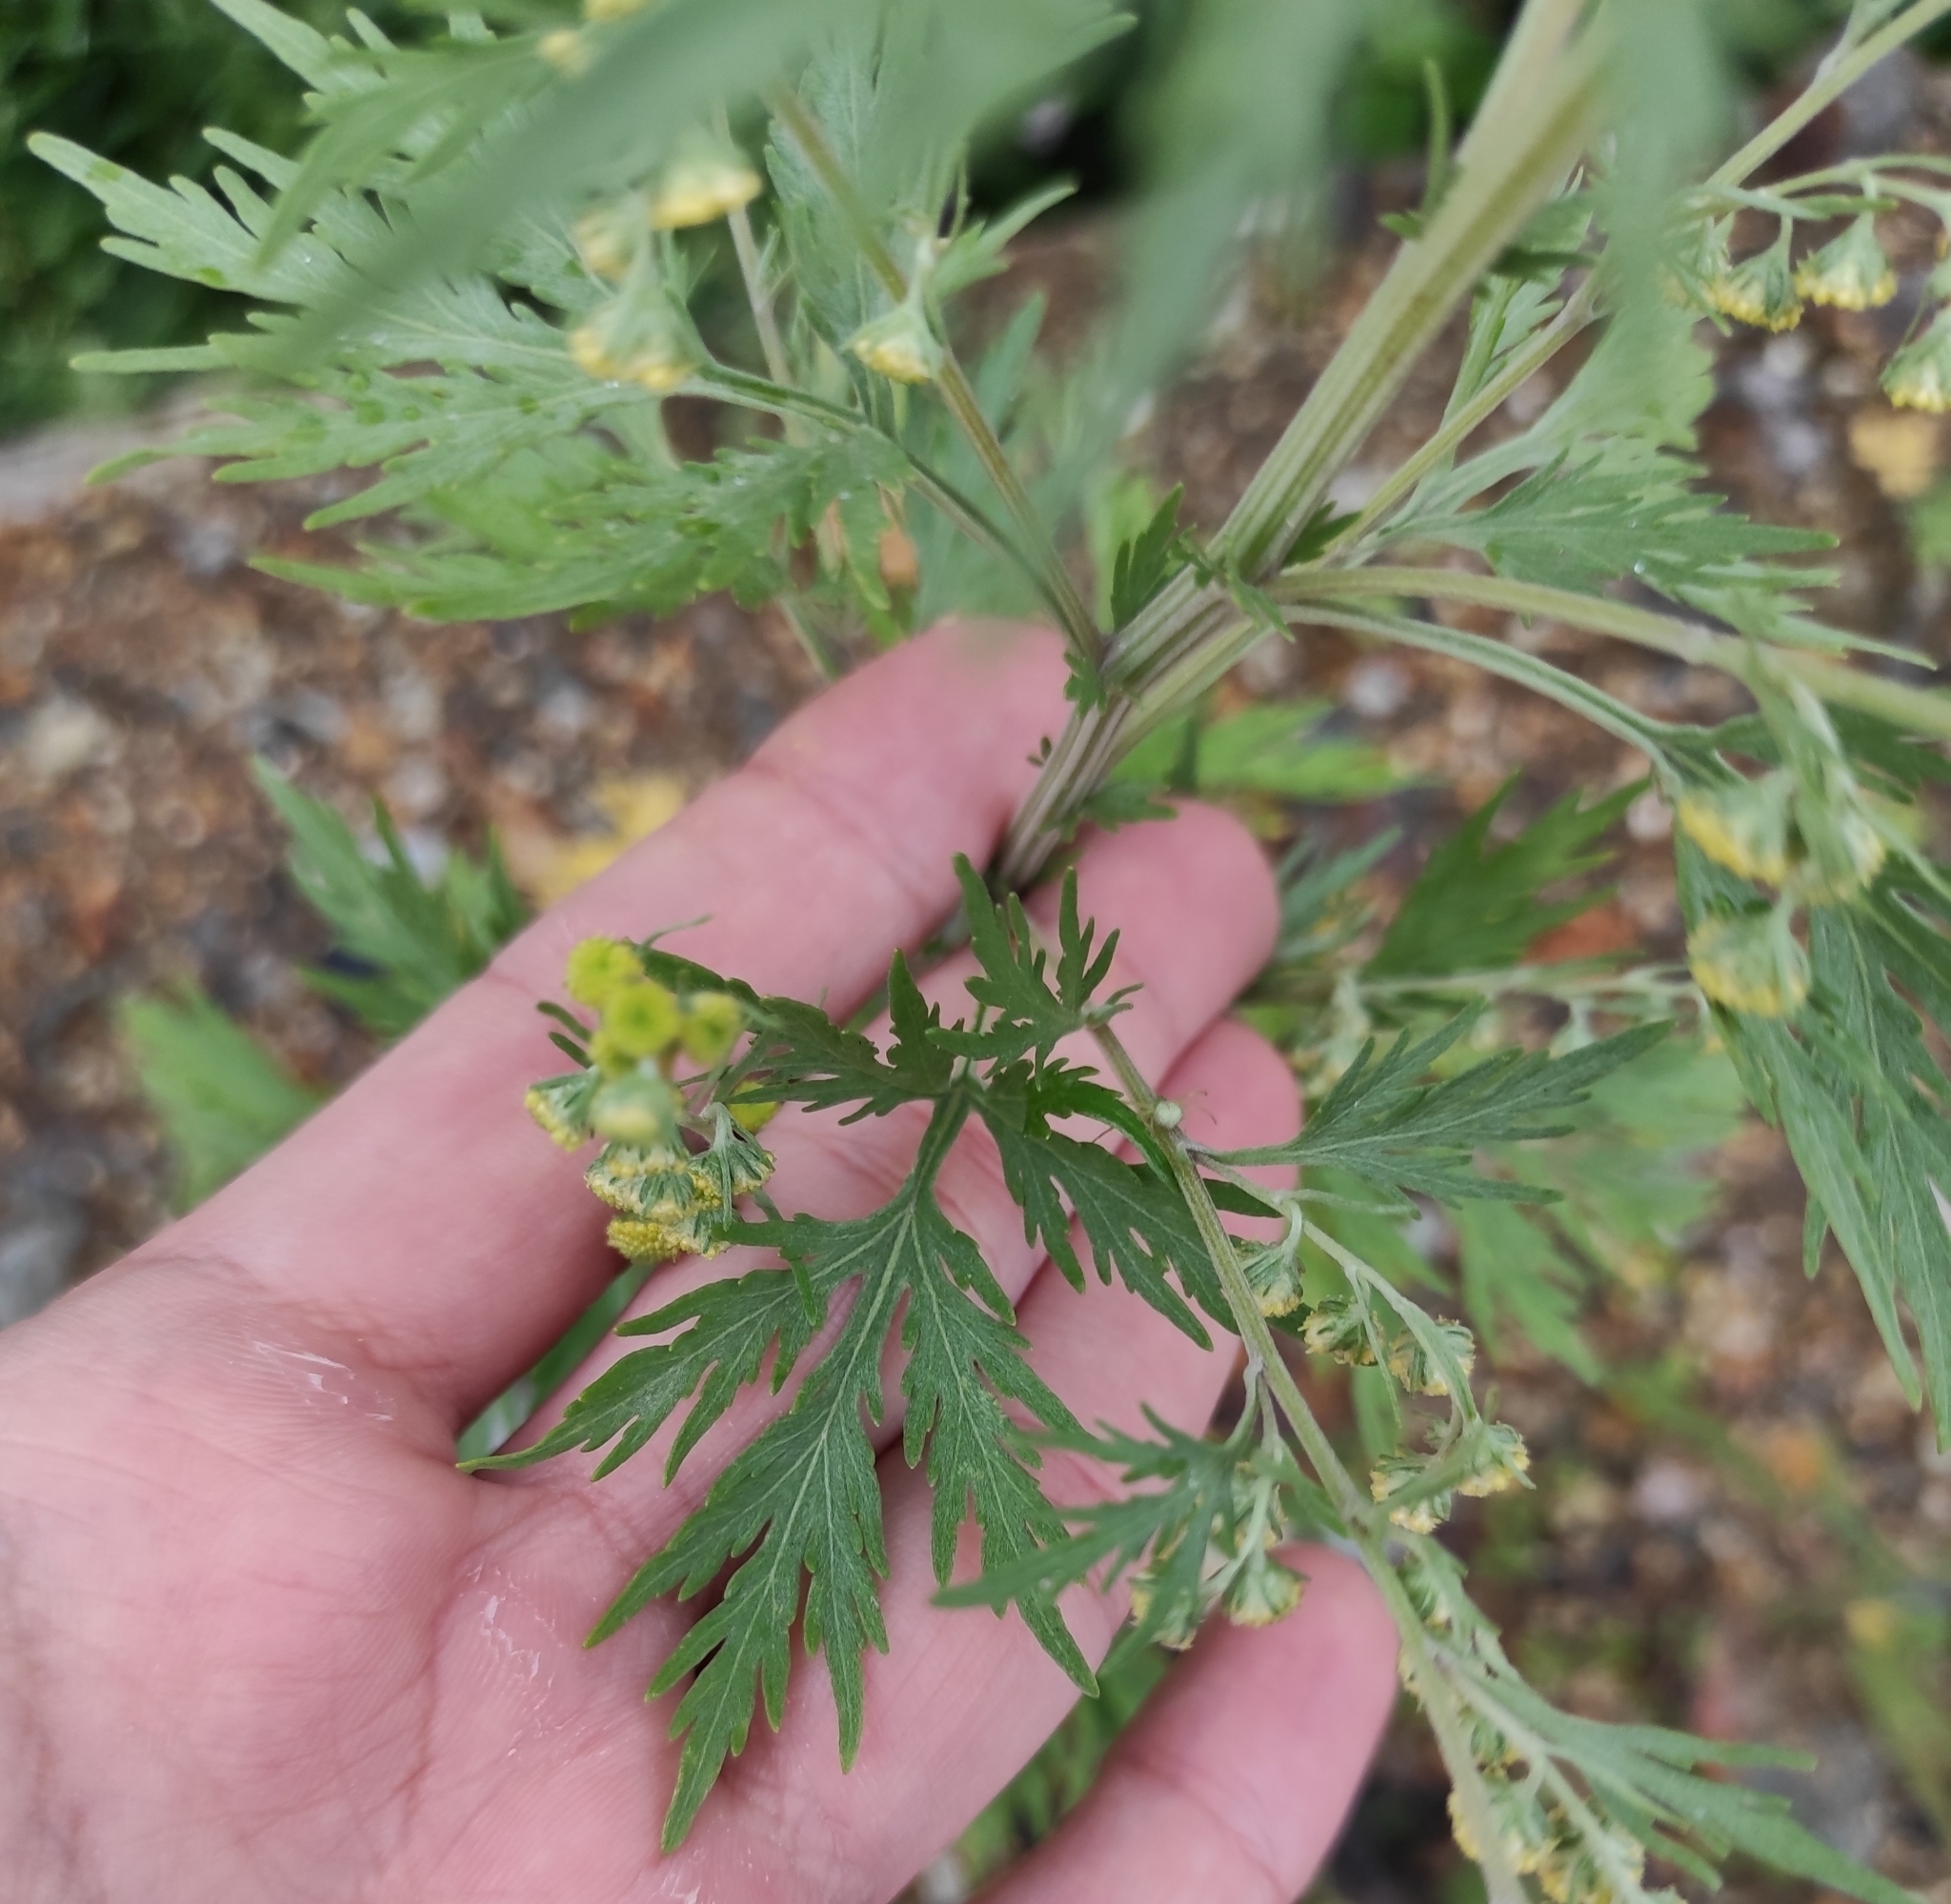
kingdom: Plantae
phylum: Tracheophyta
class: Magnoliopsida
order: Asterales
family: Asteraceae
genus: Artemisia
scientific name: Artemisia sieversiana
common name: Sieversian wormwood
